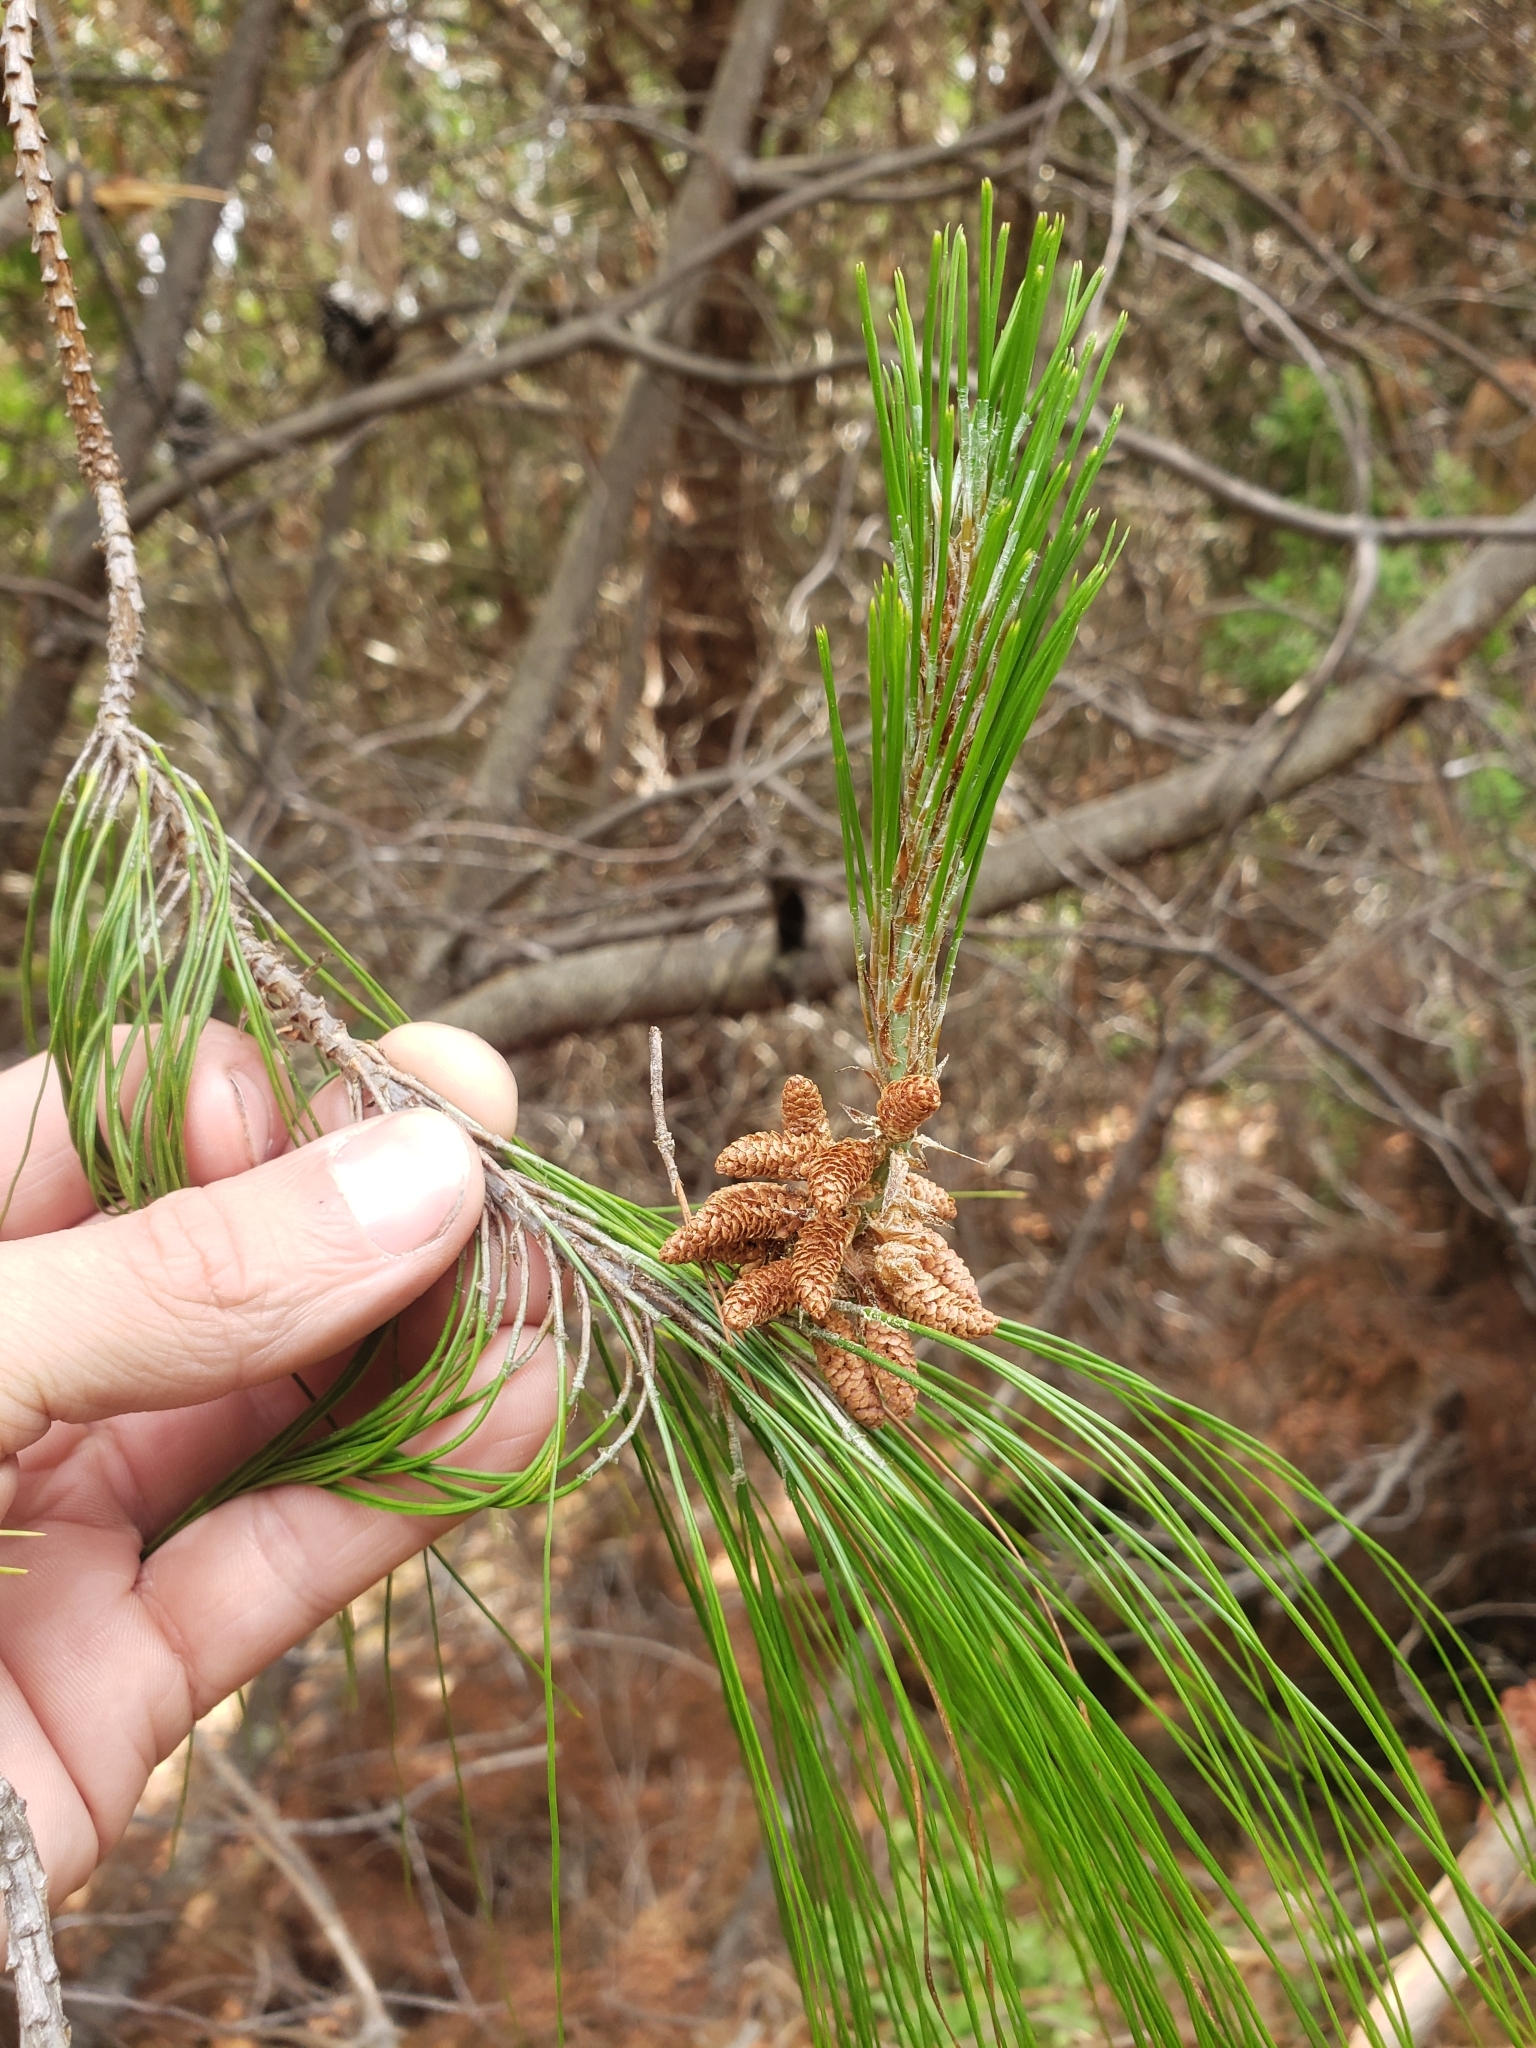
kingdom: Plantae
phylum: Tracheophyta
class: Pinopsida
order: Pinales
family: Pinaceae
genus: Pinus
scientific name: Pinus patula
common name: Mexican weeping pine
